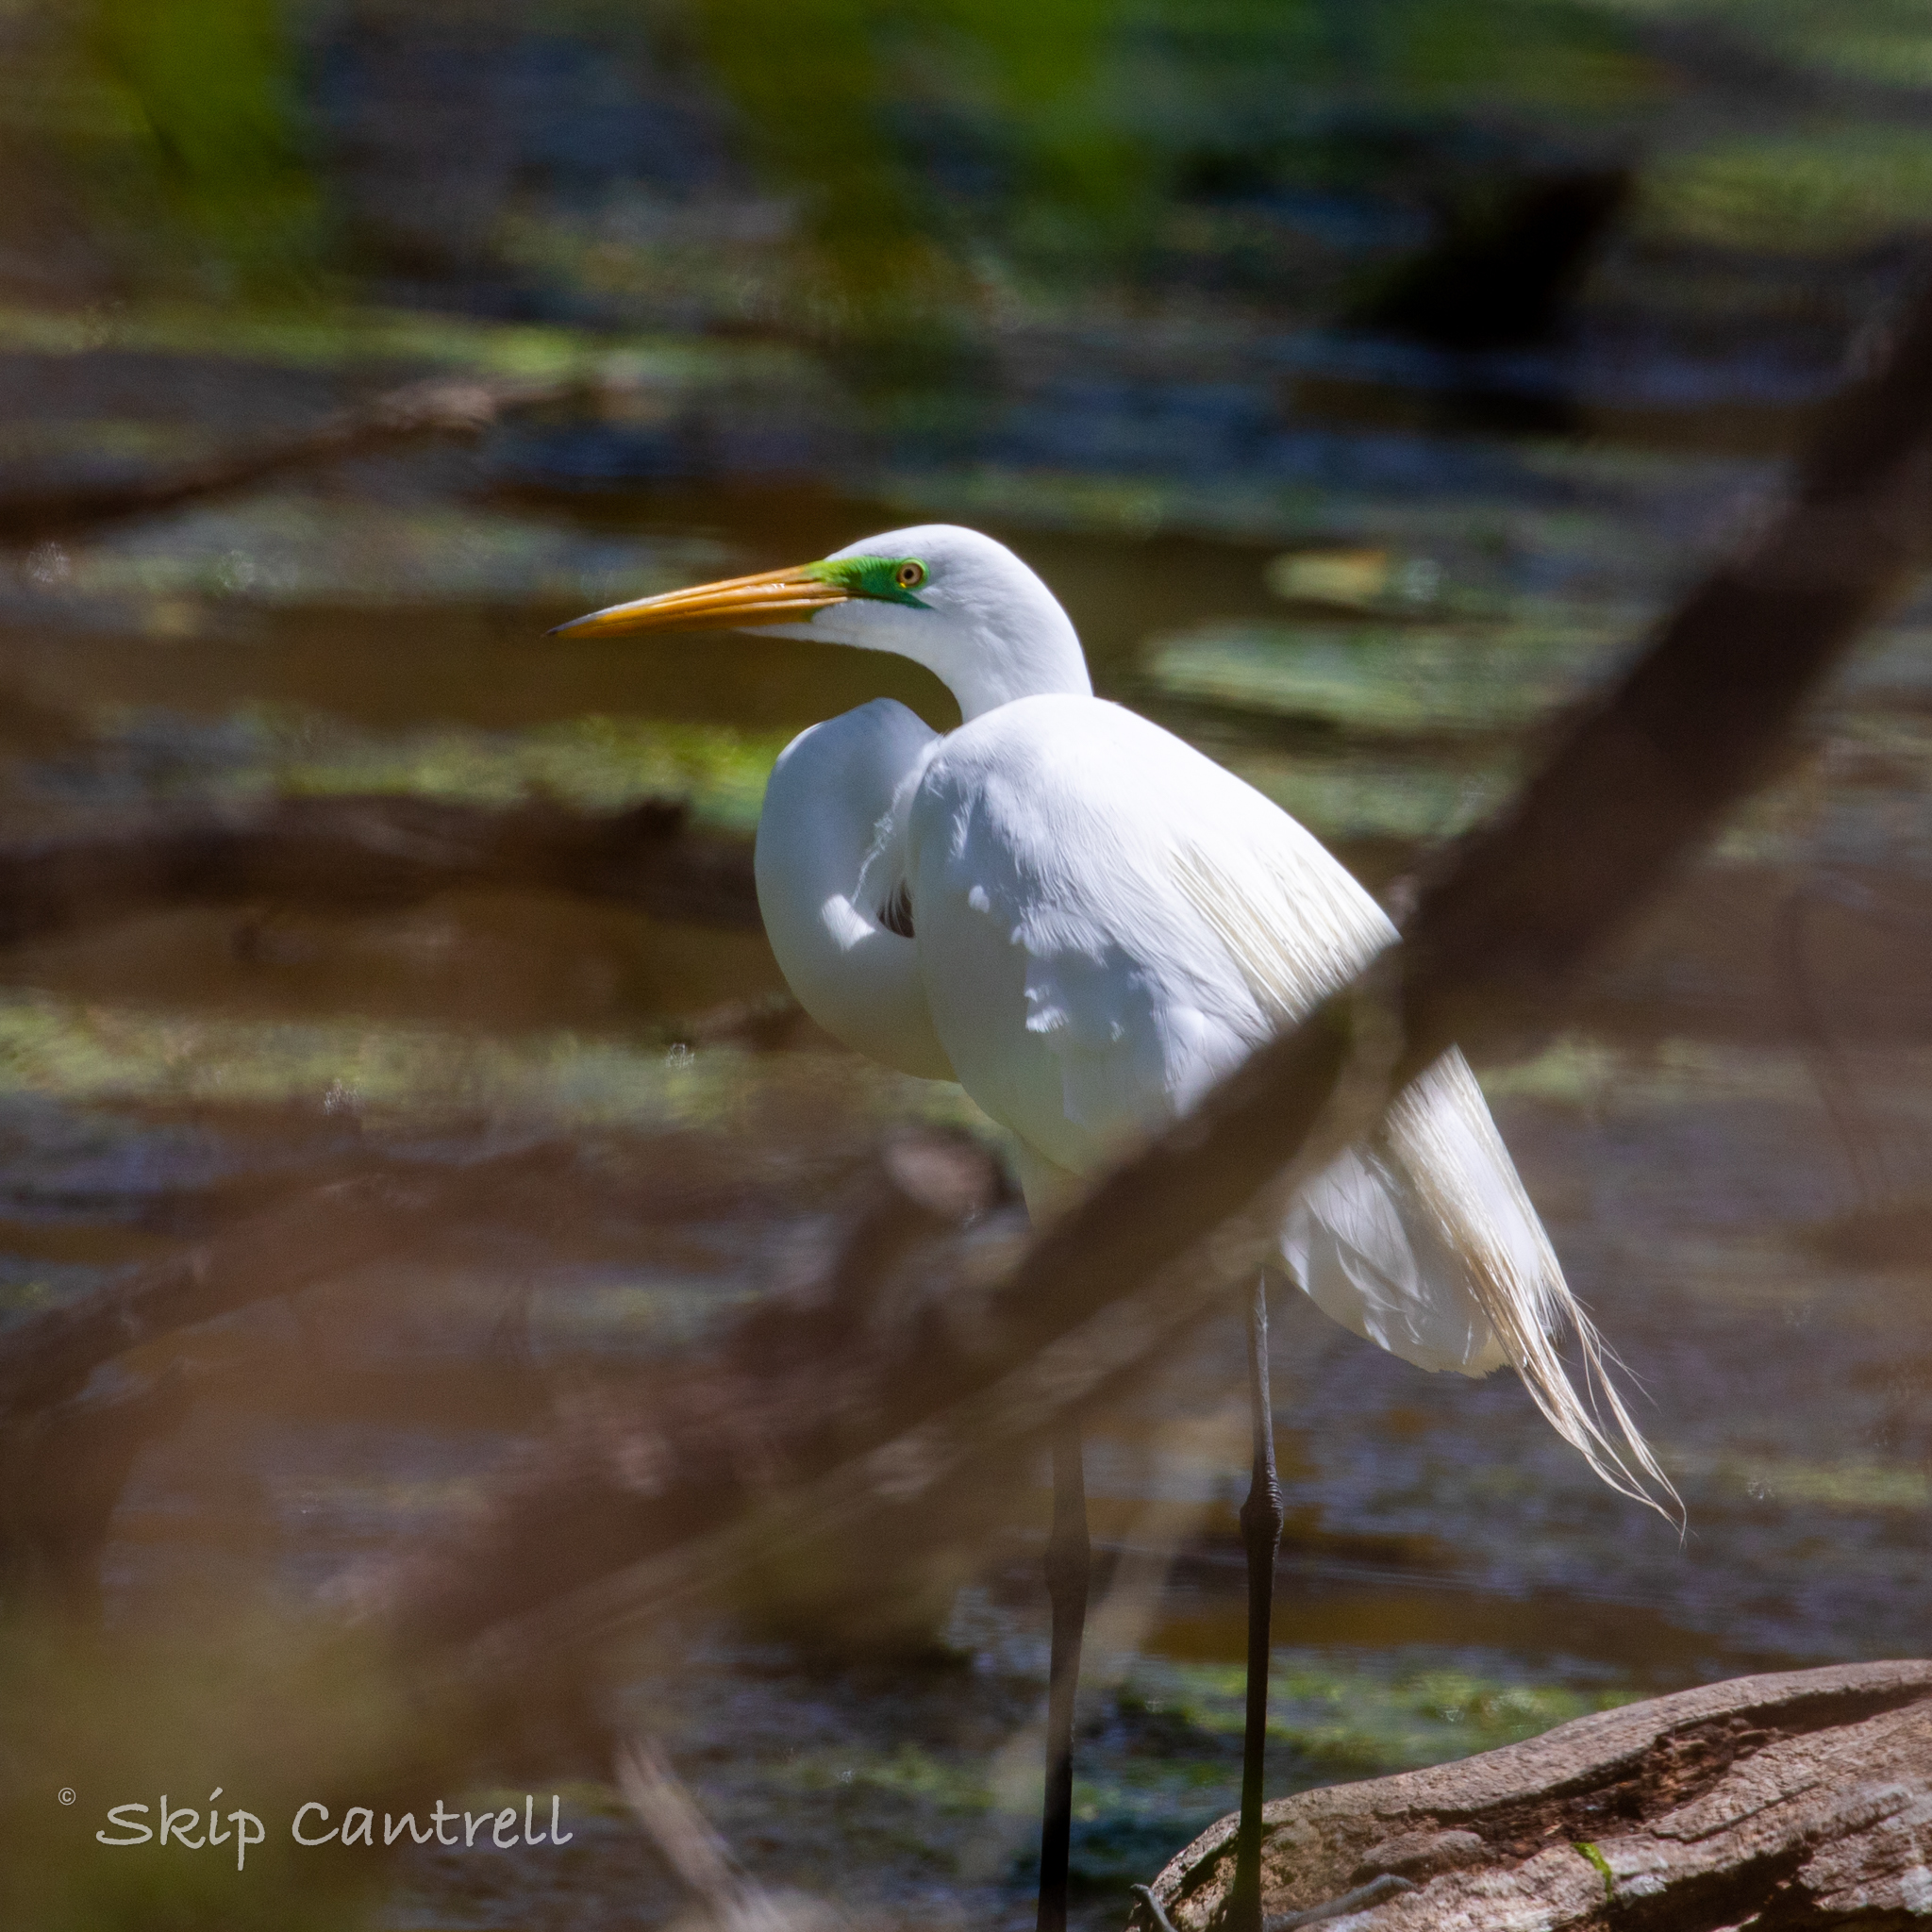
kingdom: Animalia
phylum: Chordata
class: Aves
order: Pelecaniformes
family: Ardeidae
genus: Ardea
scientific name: Ardea alba
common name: Great egret
